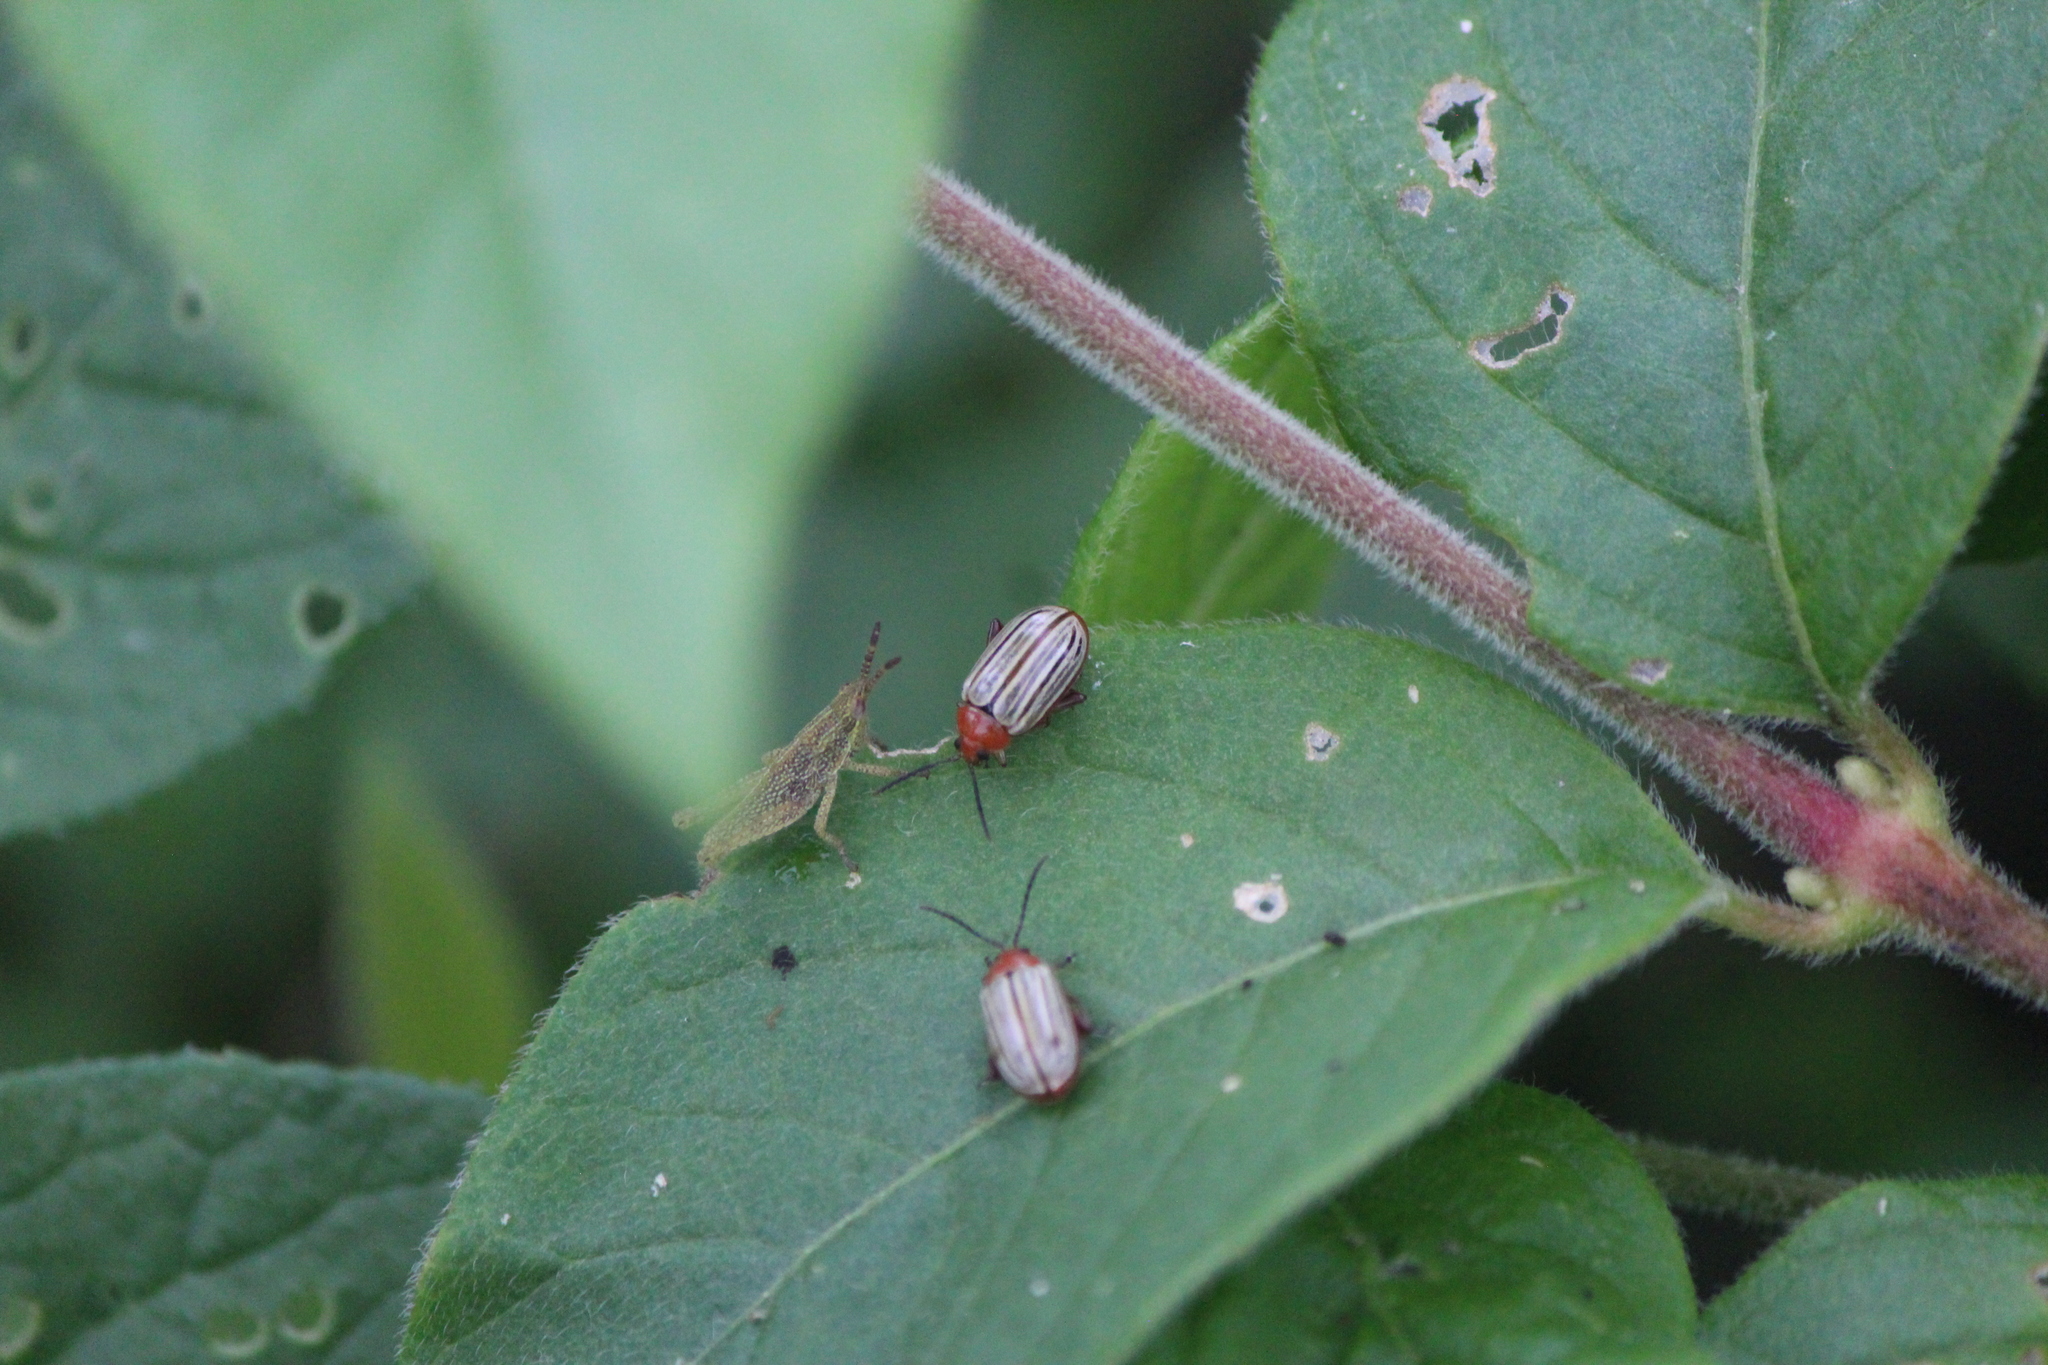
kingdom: Animalia
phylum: Arthropoda
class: Insecta
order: Coleoptera
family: Chrysomelidae
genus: Disonycha
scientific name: Disonycha
